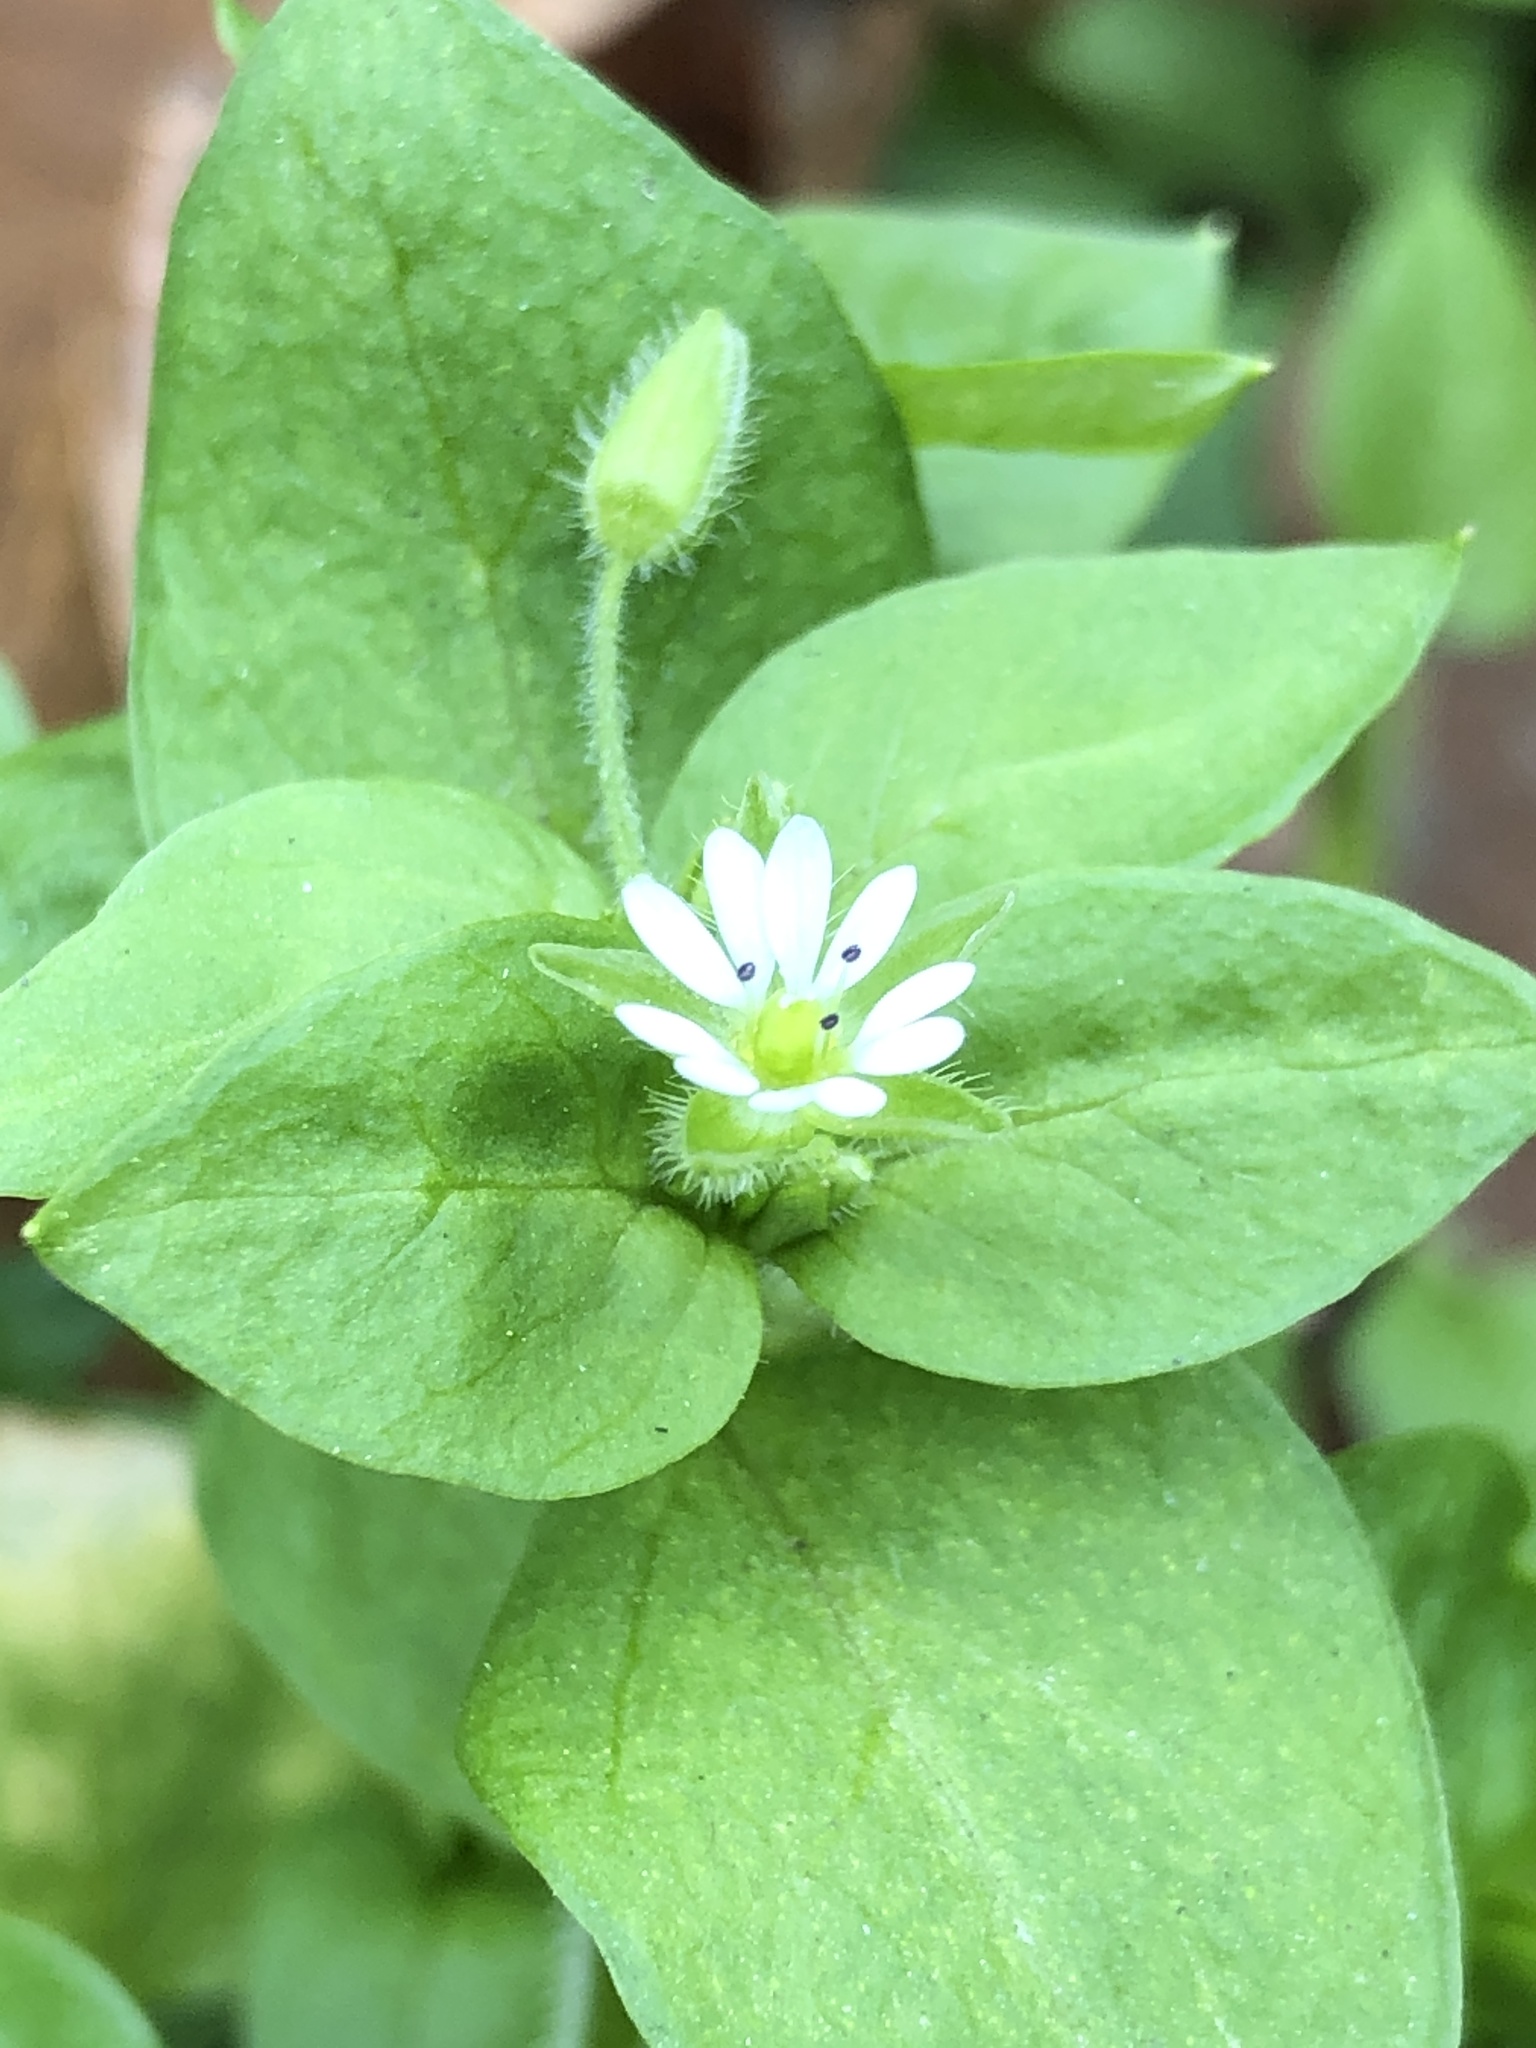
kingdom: Plantae
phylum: Tracheophyta
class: Magnoliopsida
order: Caryophyllales
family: Caryophyllaceae
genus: Stellaria
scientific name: Stellaria media
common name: Common chickweed
